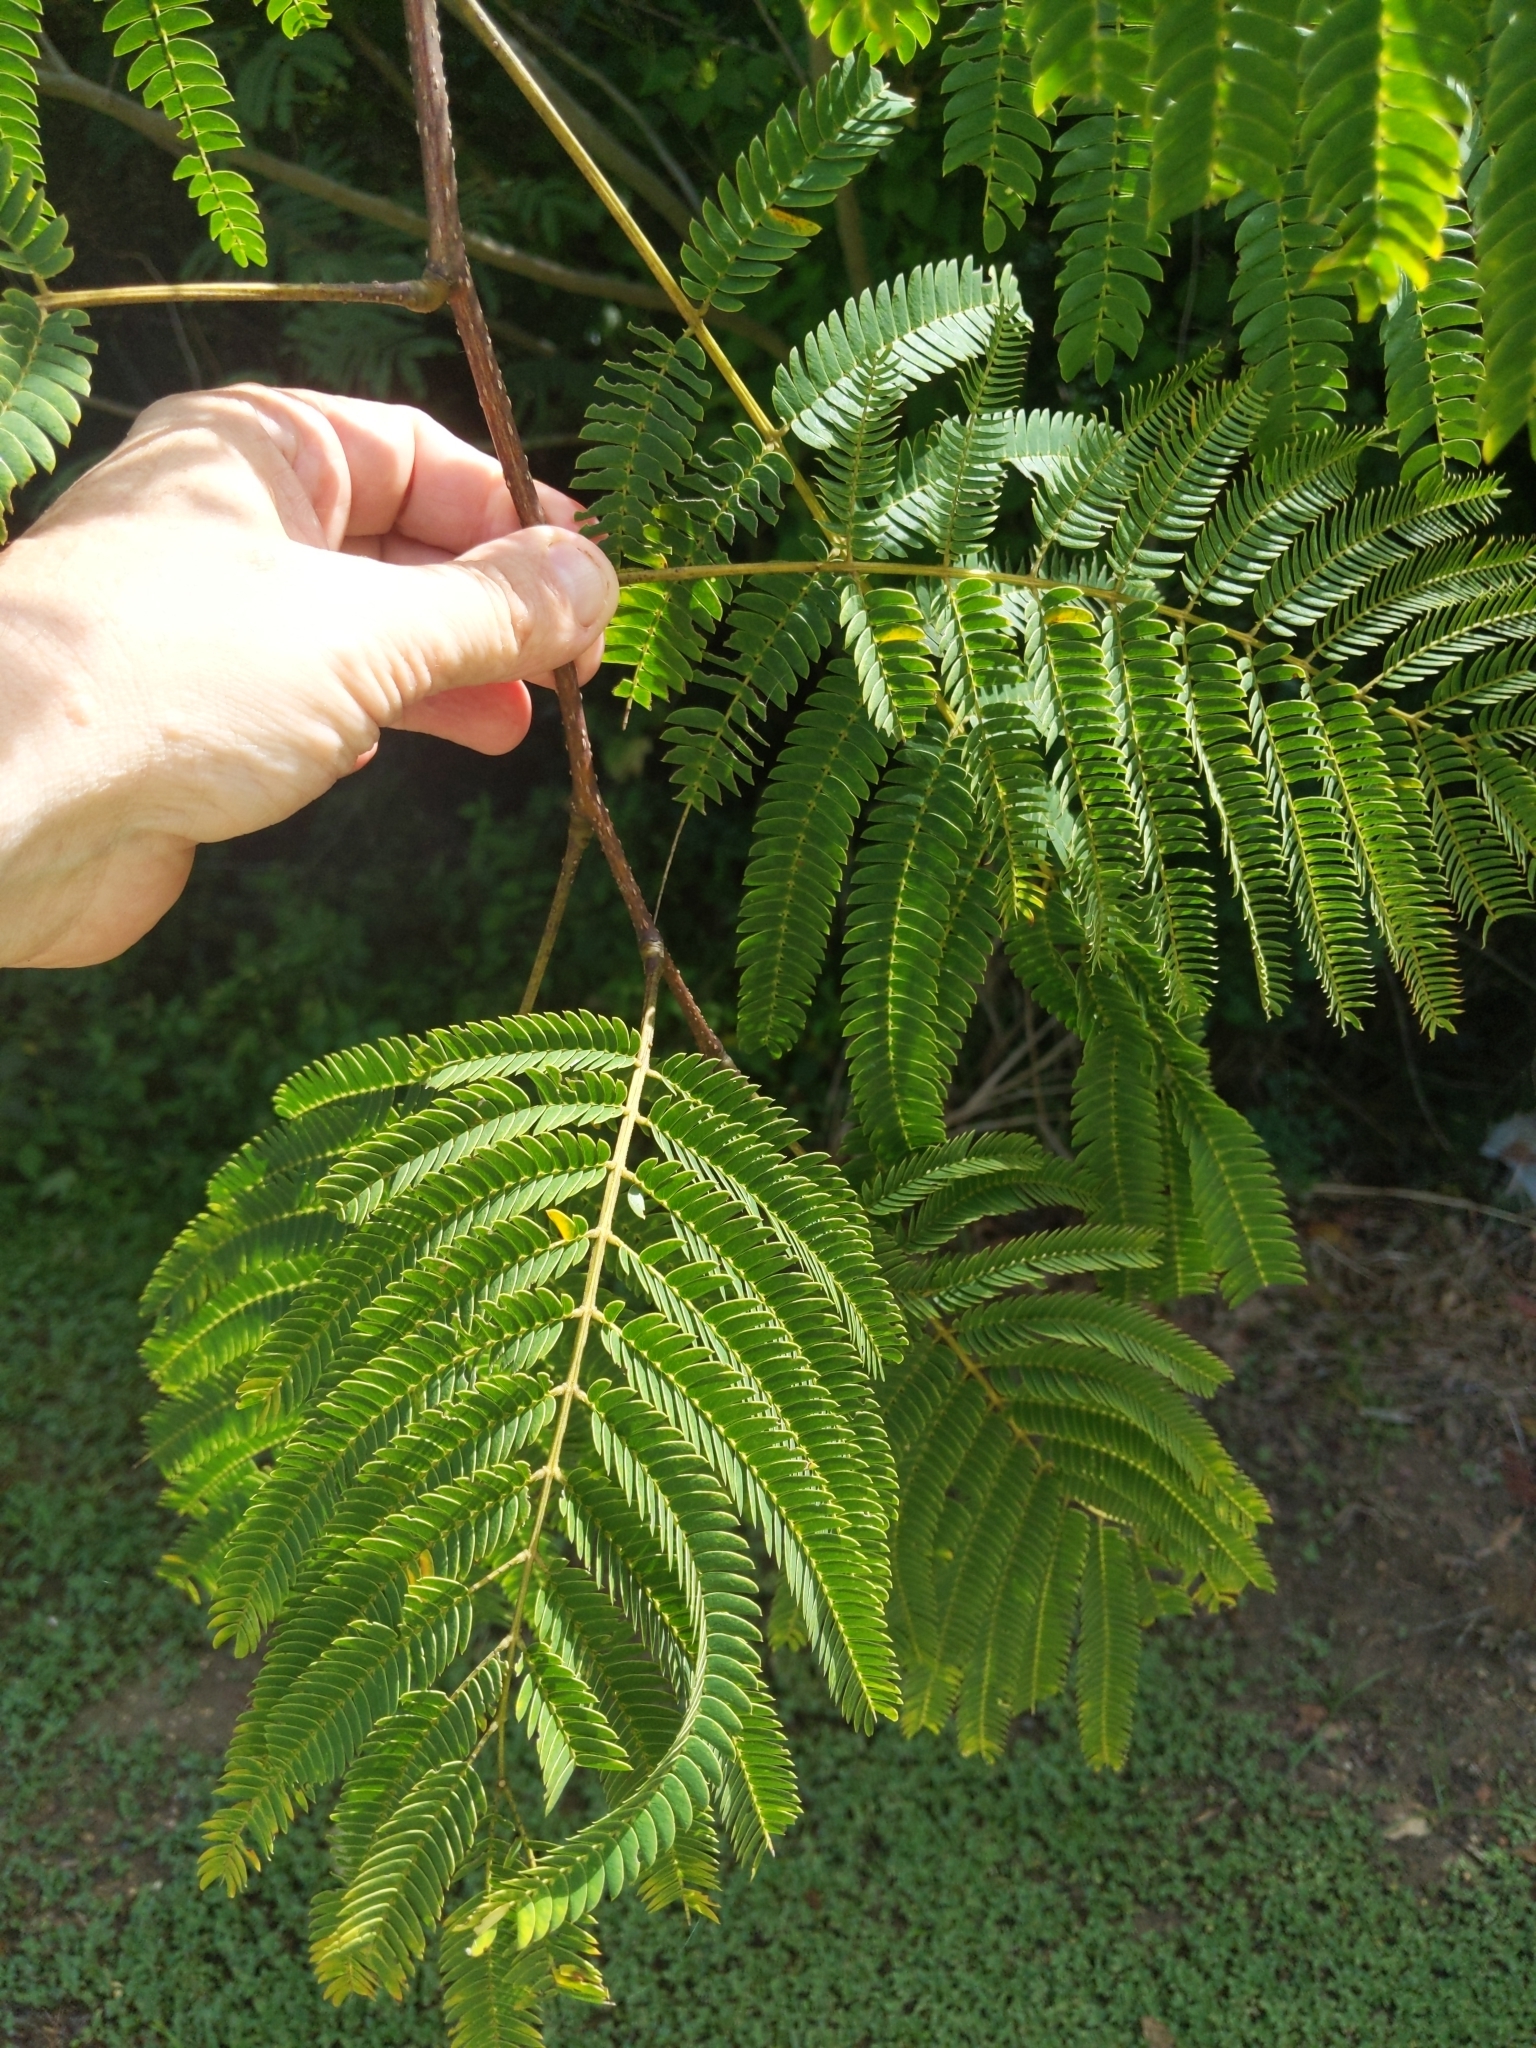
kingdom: Plantae
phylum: Tracheophyta
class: Magnoliopsida
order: Fabales
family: Fabaceae
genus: Albizia
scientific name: Albizia julibrissin
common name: Silktree
